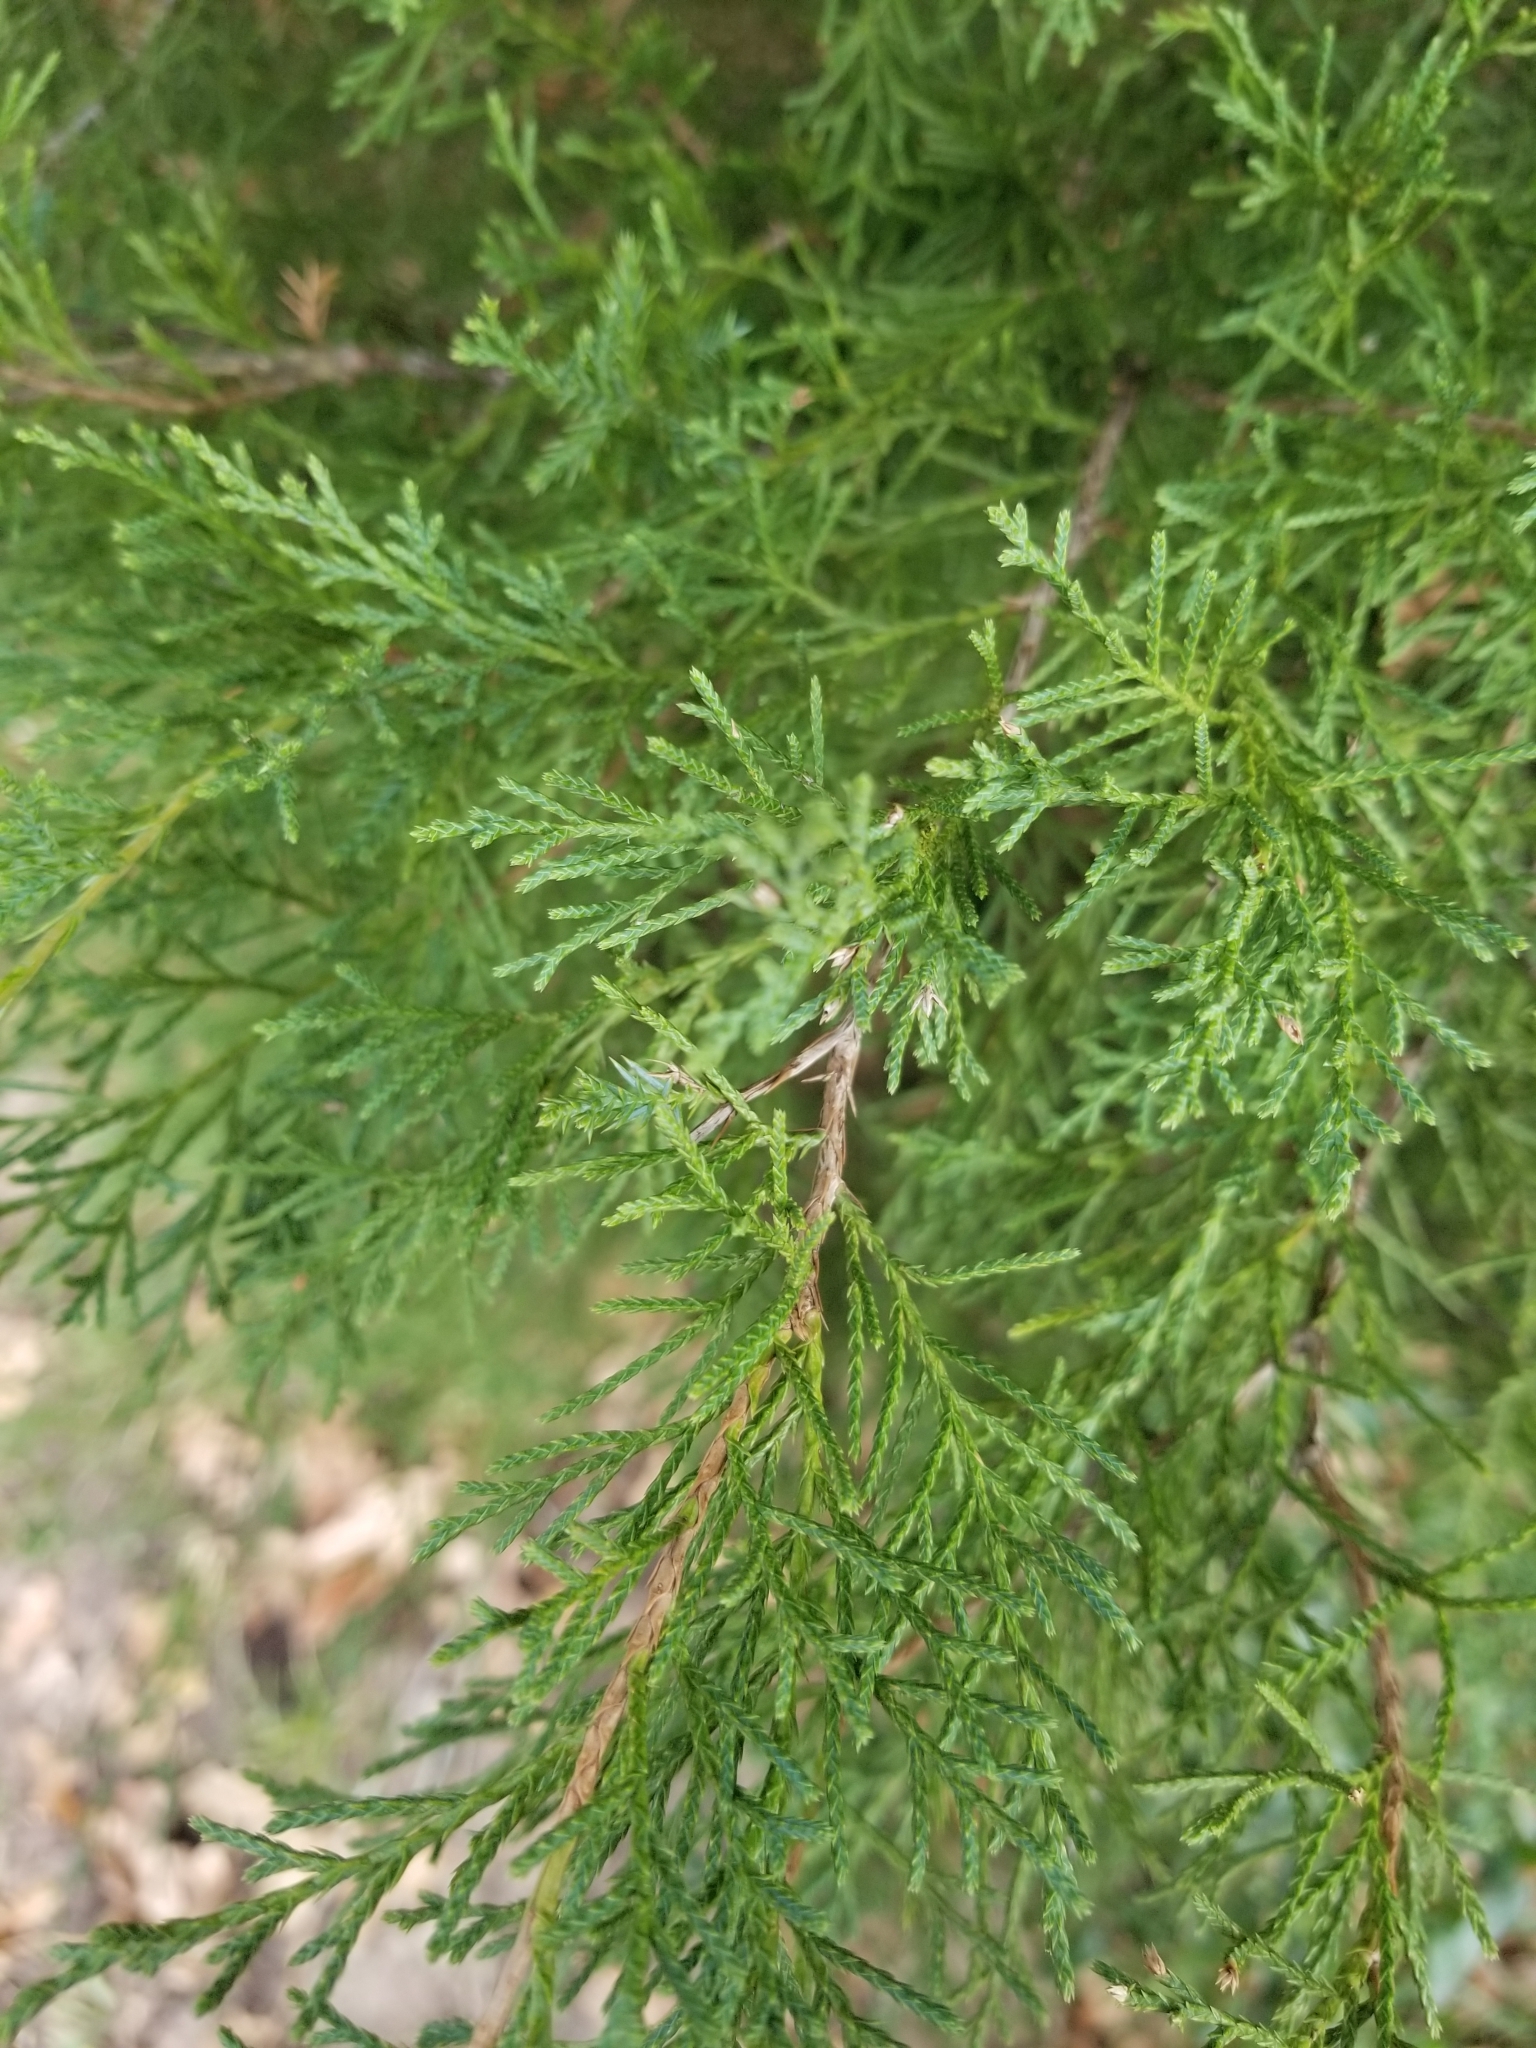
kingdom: Plantae
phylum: Tracheophyta
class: Pinopsida
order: Pinales
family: Cupressaceae
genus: Juniperus
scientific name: Juniperus virginiana
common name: Red juniper
